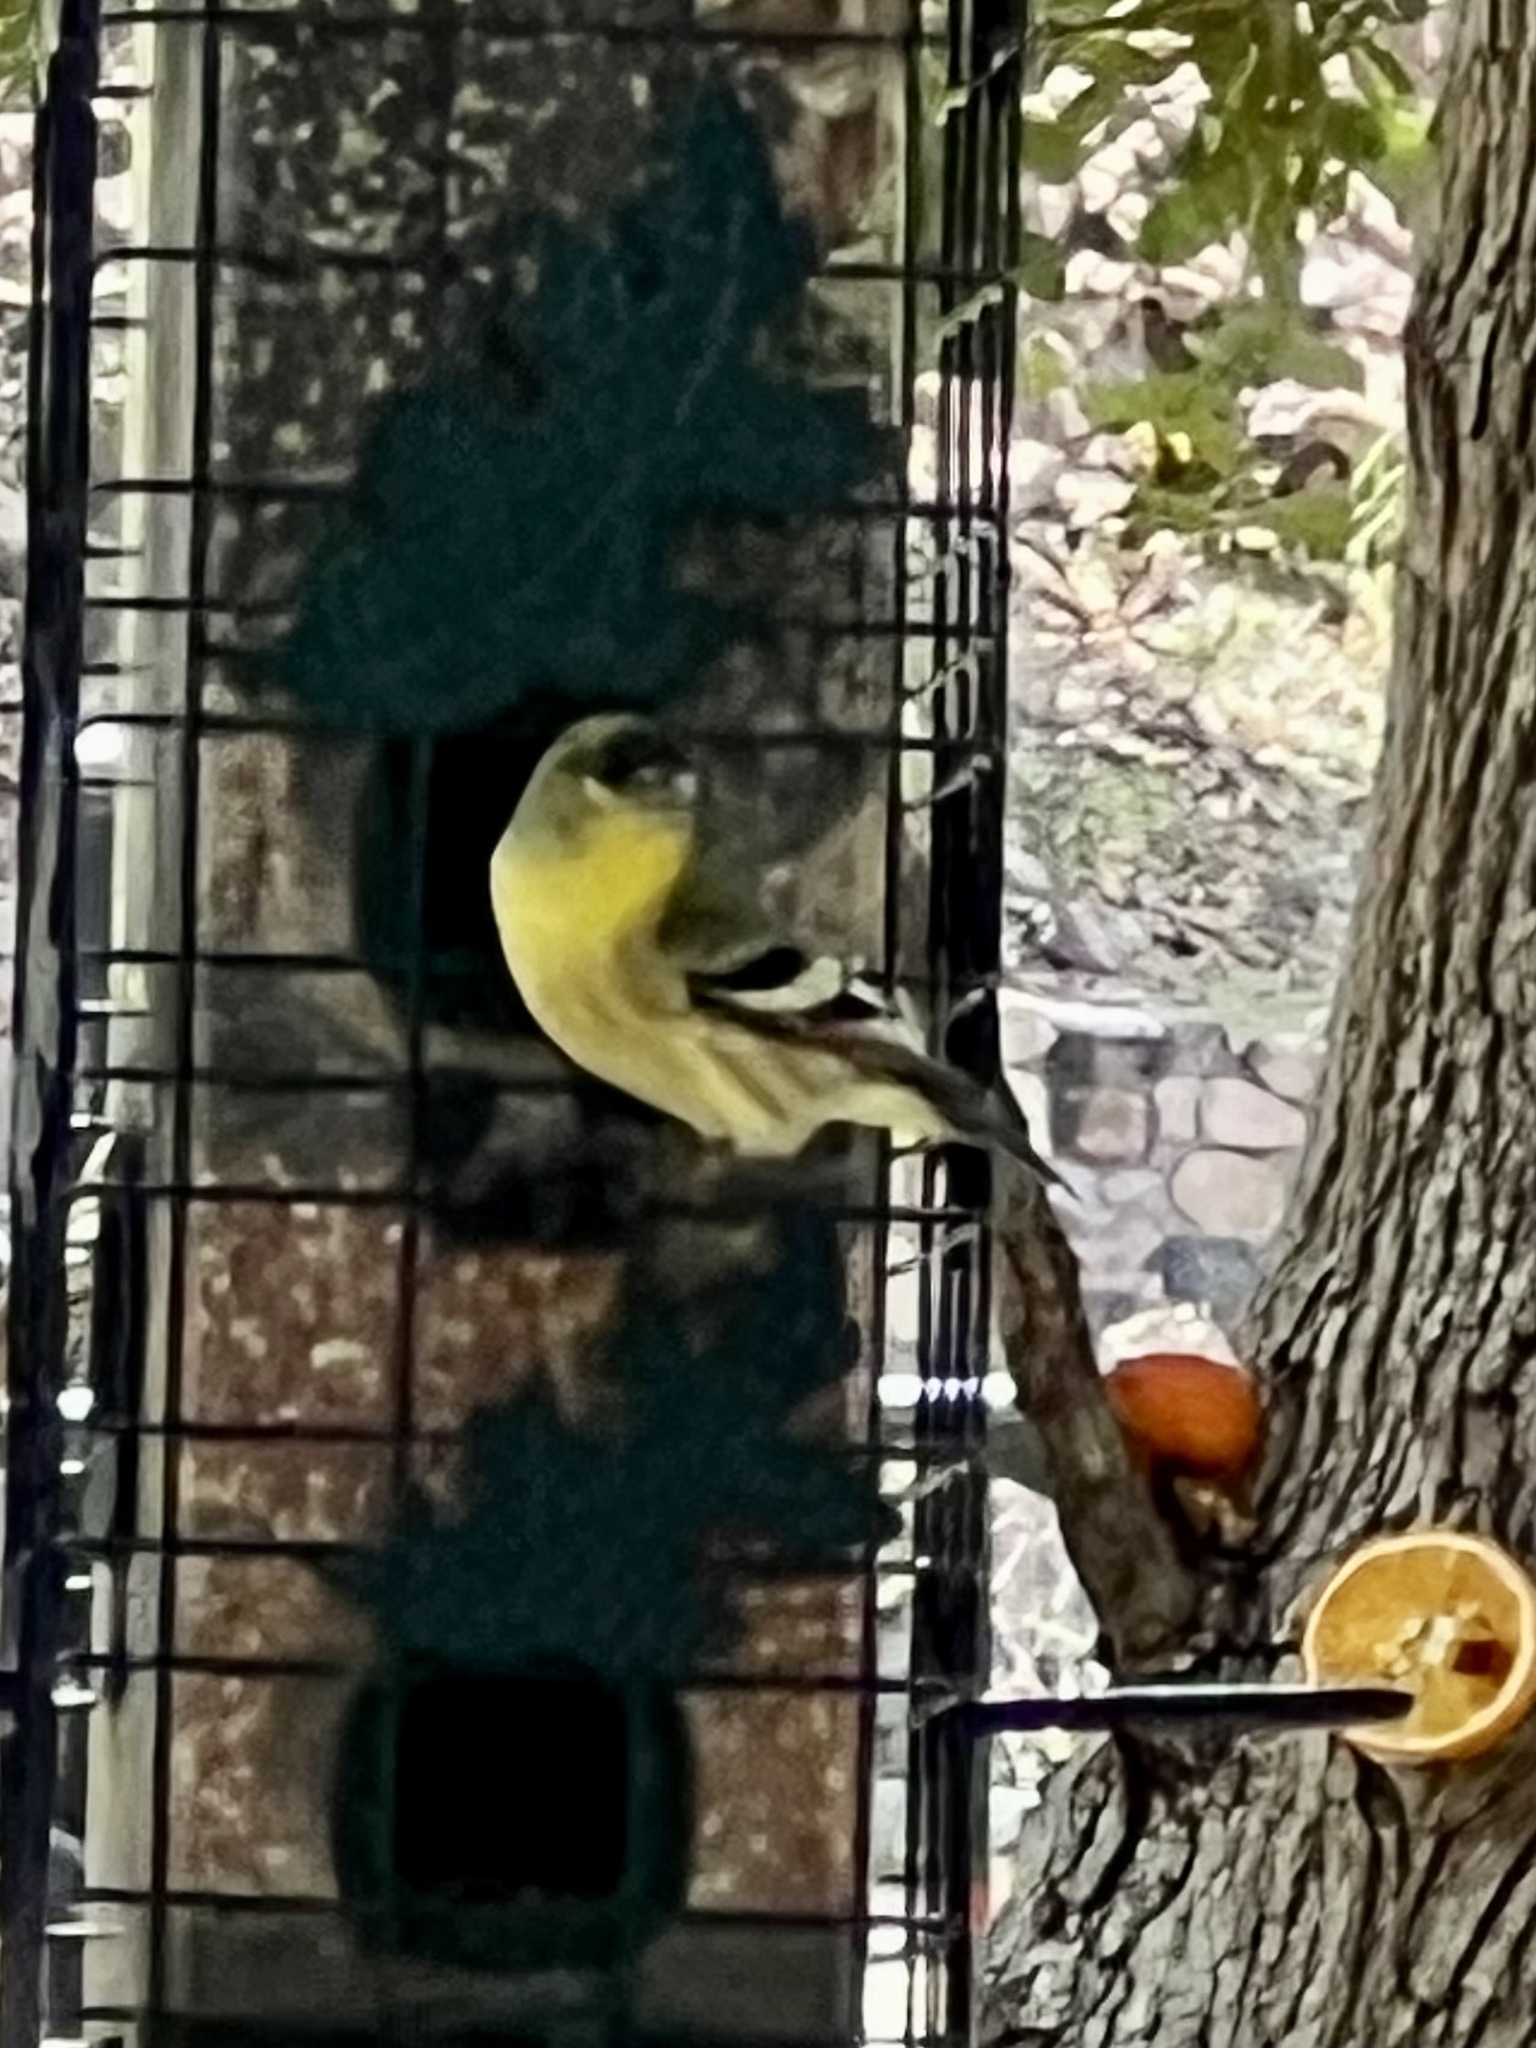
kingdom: Animalia
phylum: Chordata
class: Aves
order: Passeriformes
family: Fringillidae
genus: Spinus
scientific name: Spinus psaltria
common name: Lesser goldfinch
